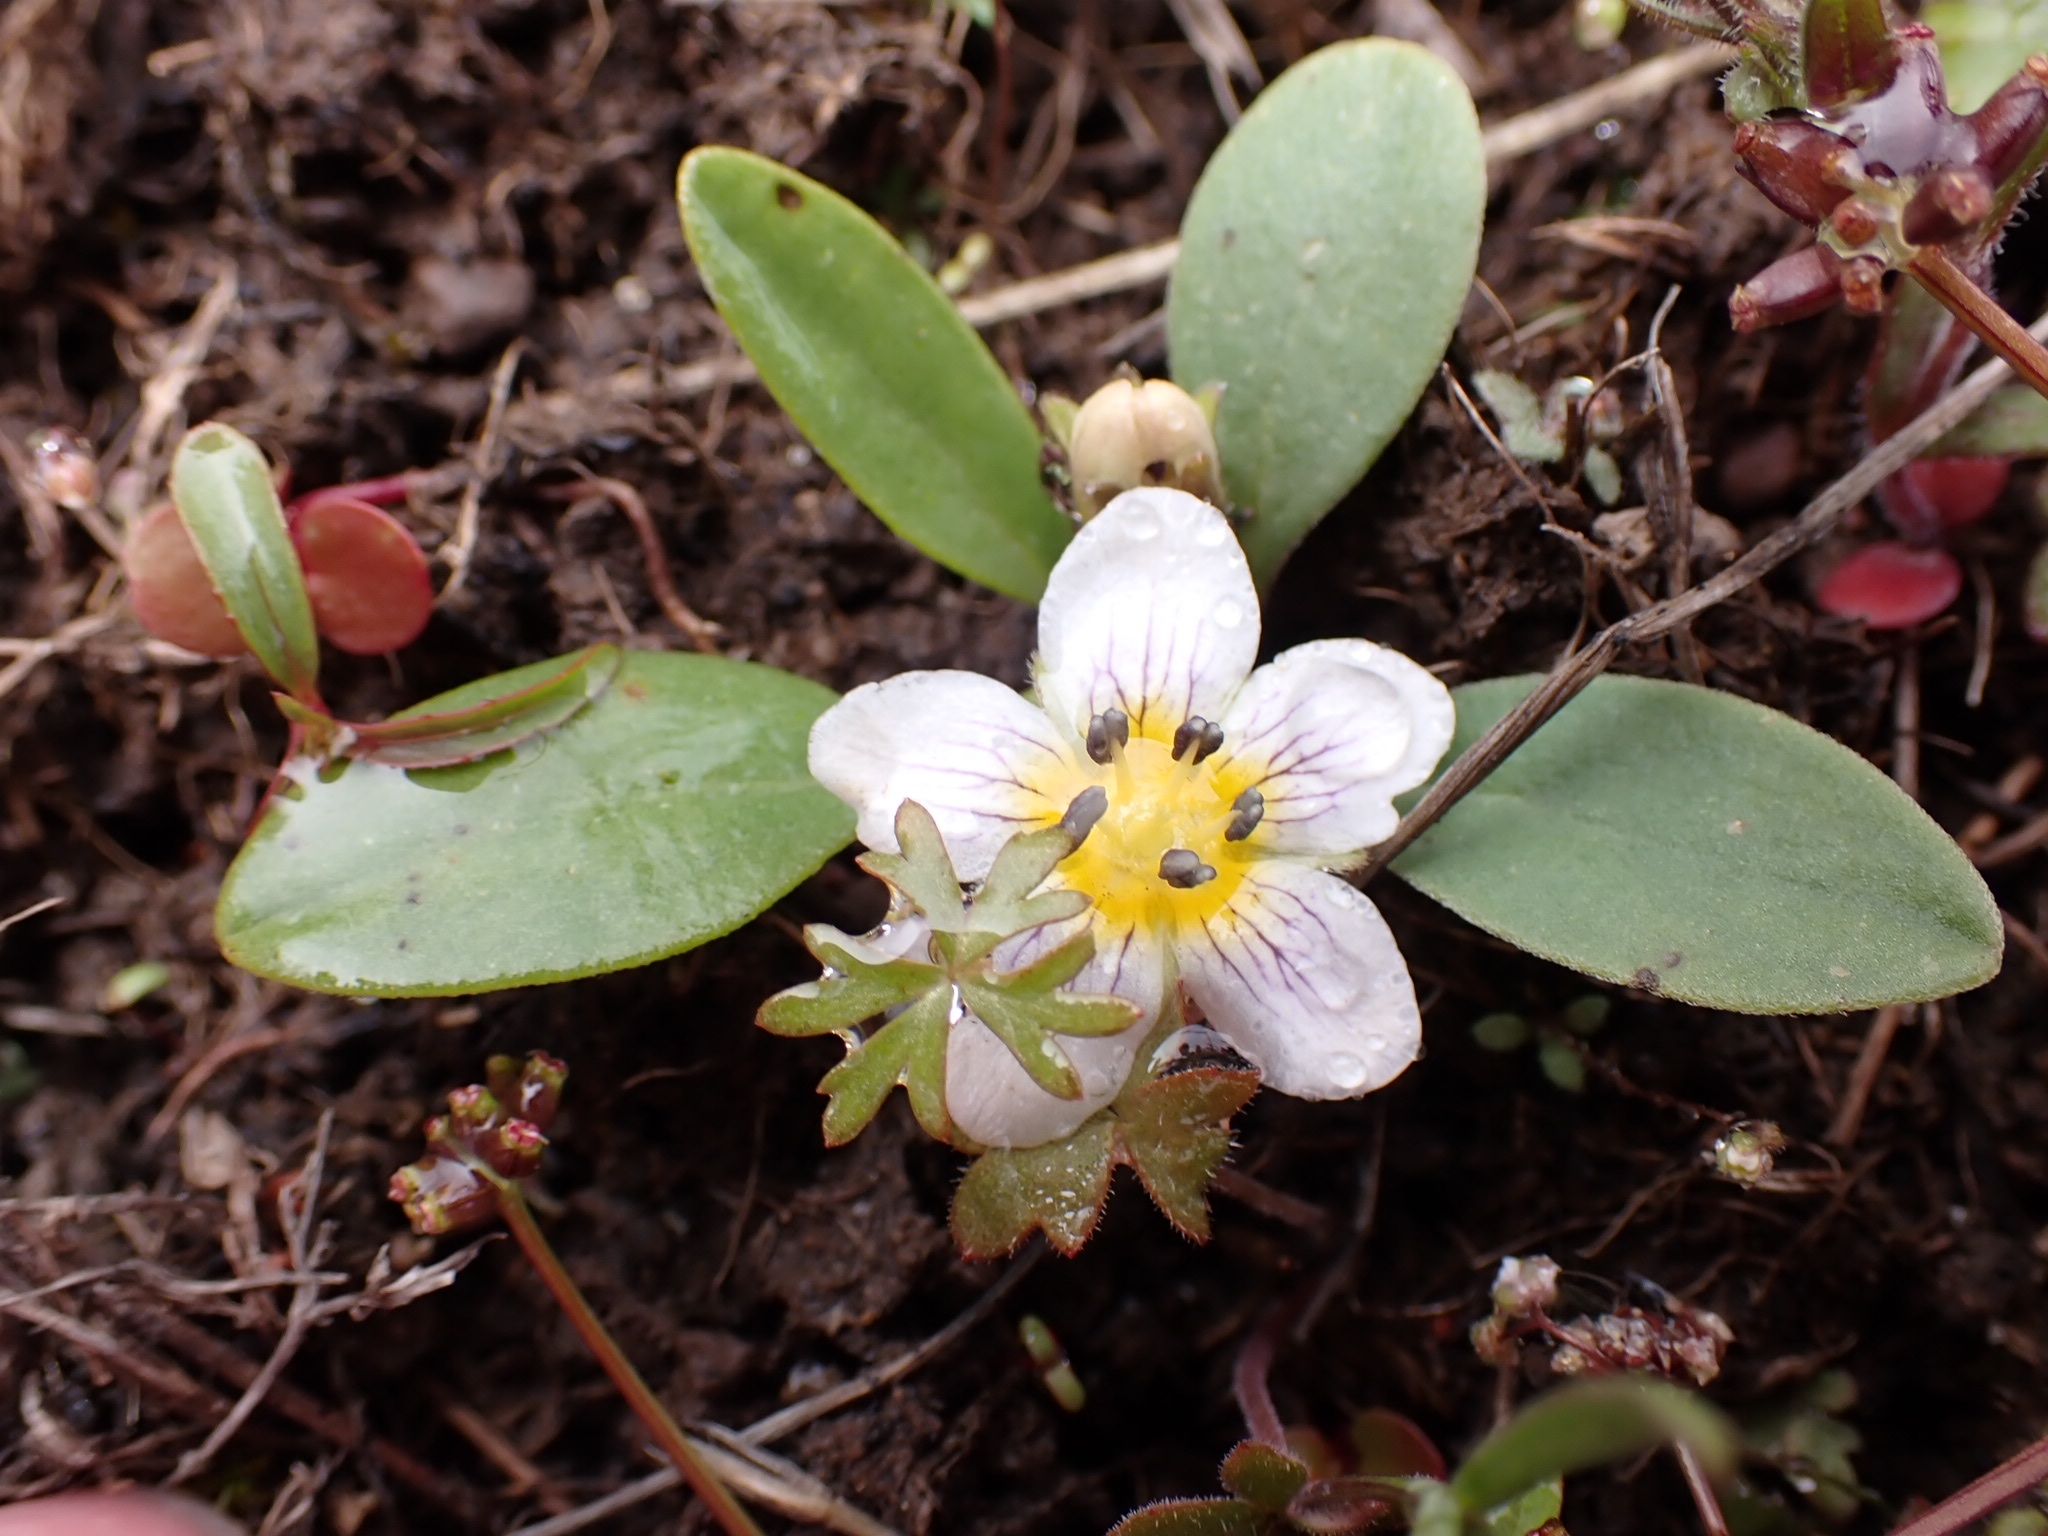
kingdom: Plantae
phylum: Tracheophyta
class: Magnoliopsida
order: Boraginales
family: Hydrophyllaceae
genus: Hesperochiron
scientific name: Hesperochiron pumilus
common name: Dwarf hesperochiron
